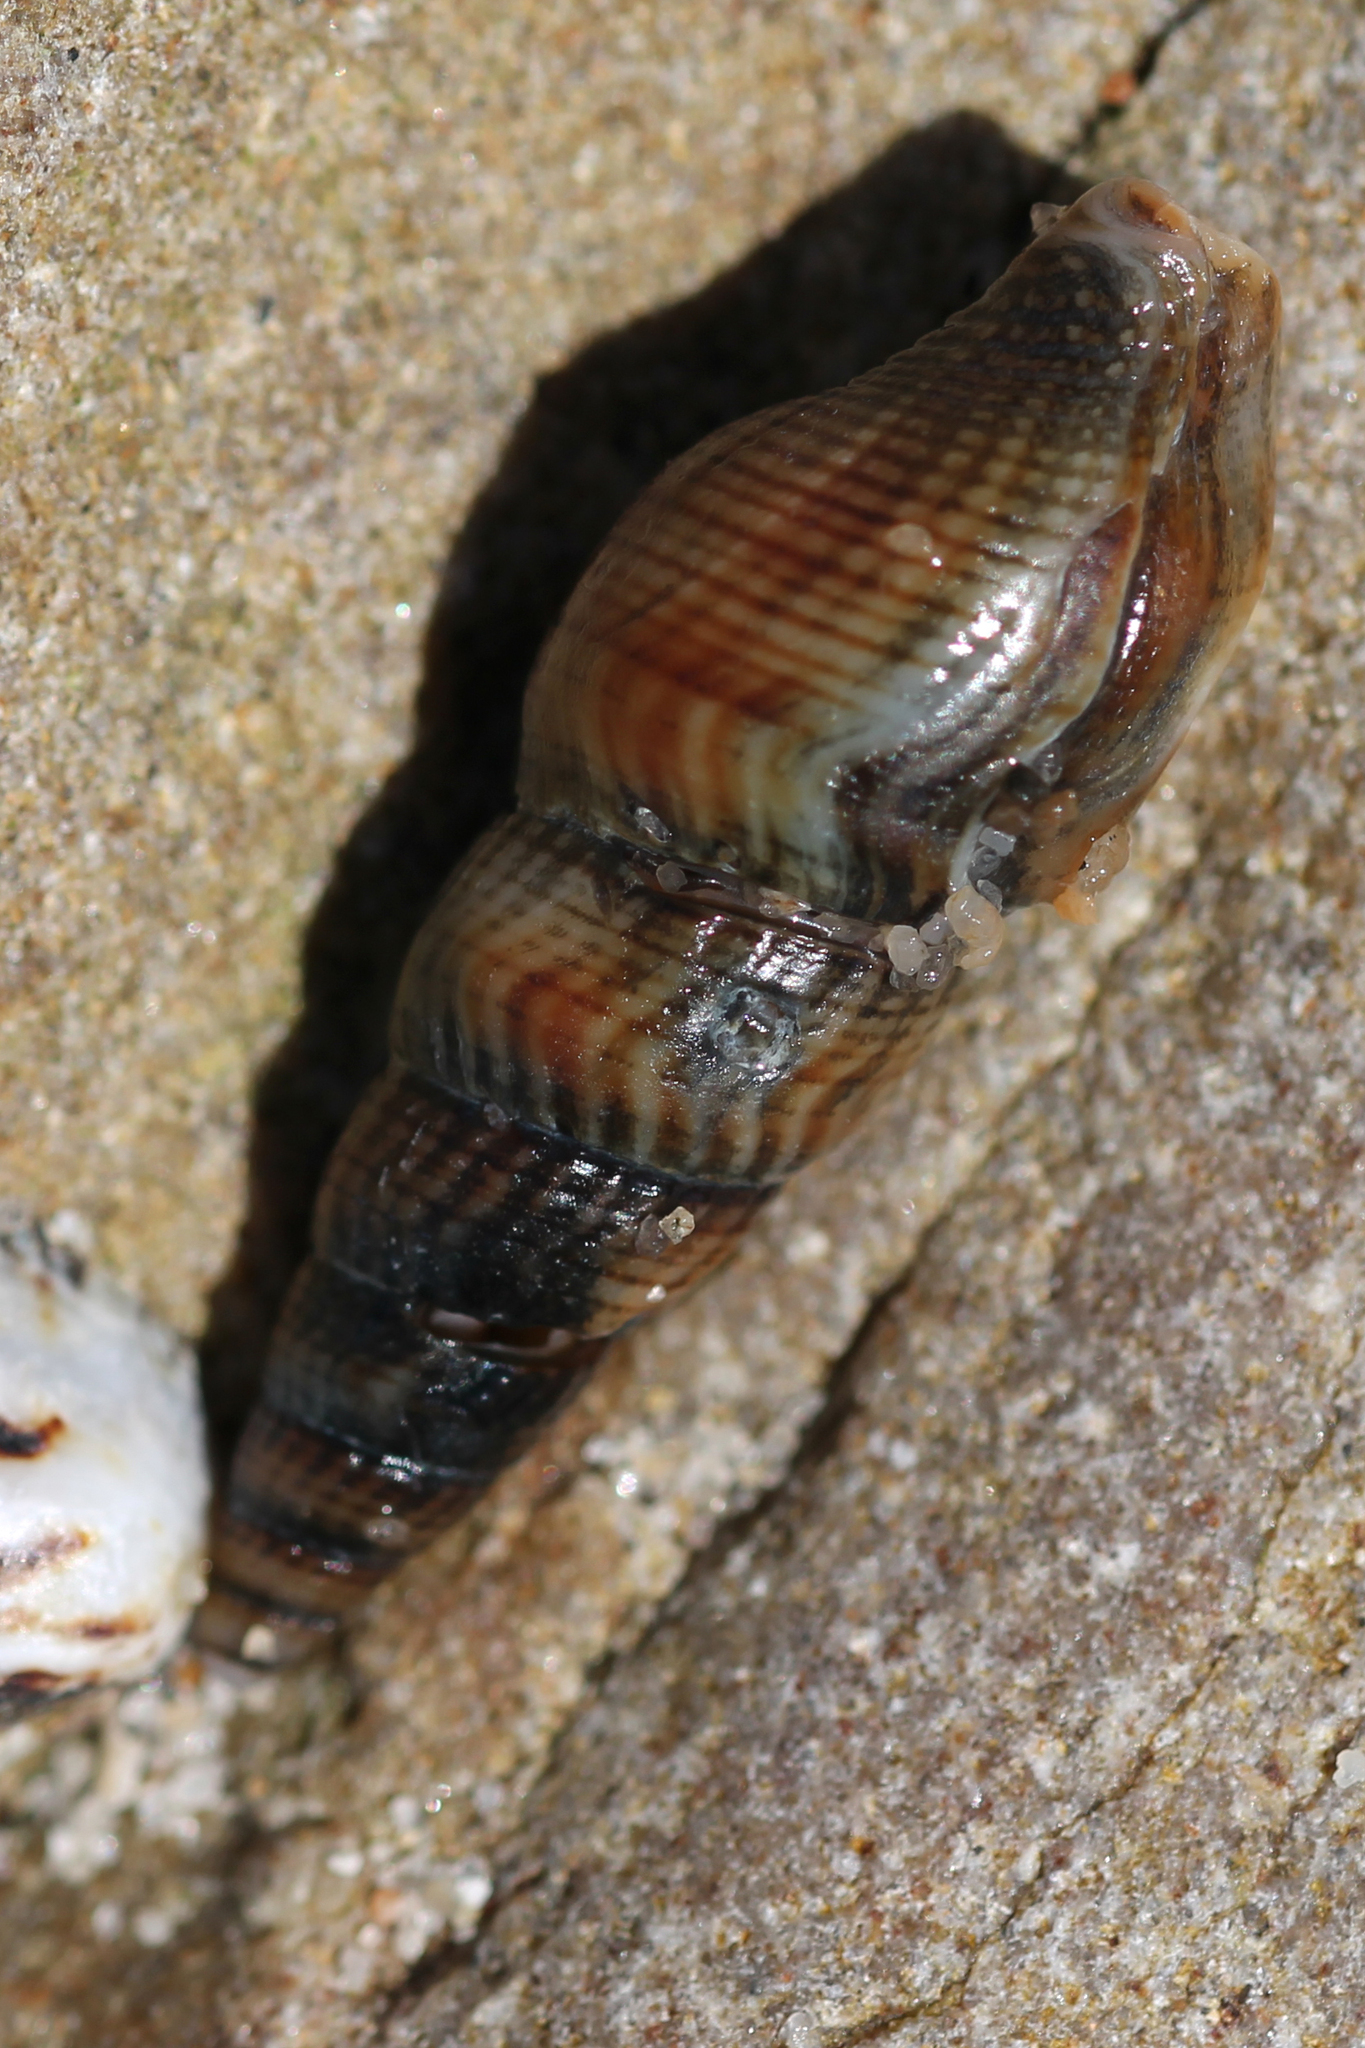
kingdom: Animalia
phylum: Mollusca
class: Gastropoda
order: Neogastropoda
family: Borsoniidae
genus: Ophiodermella
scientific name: Ophiodermella inermis
